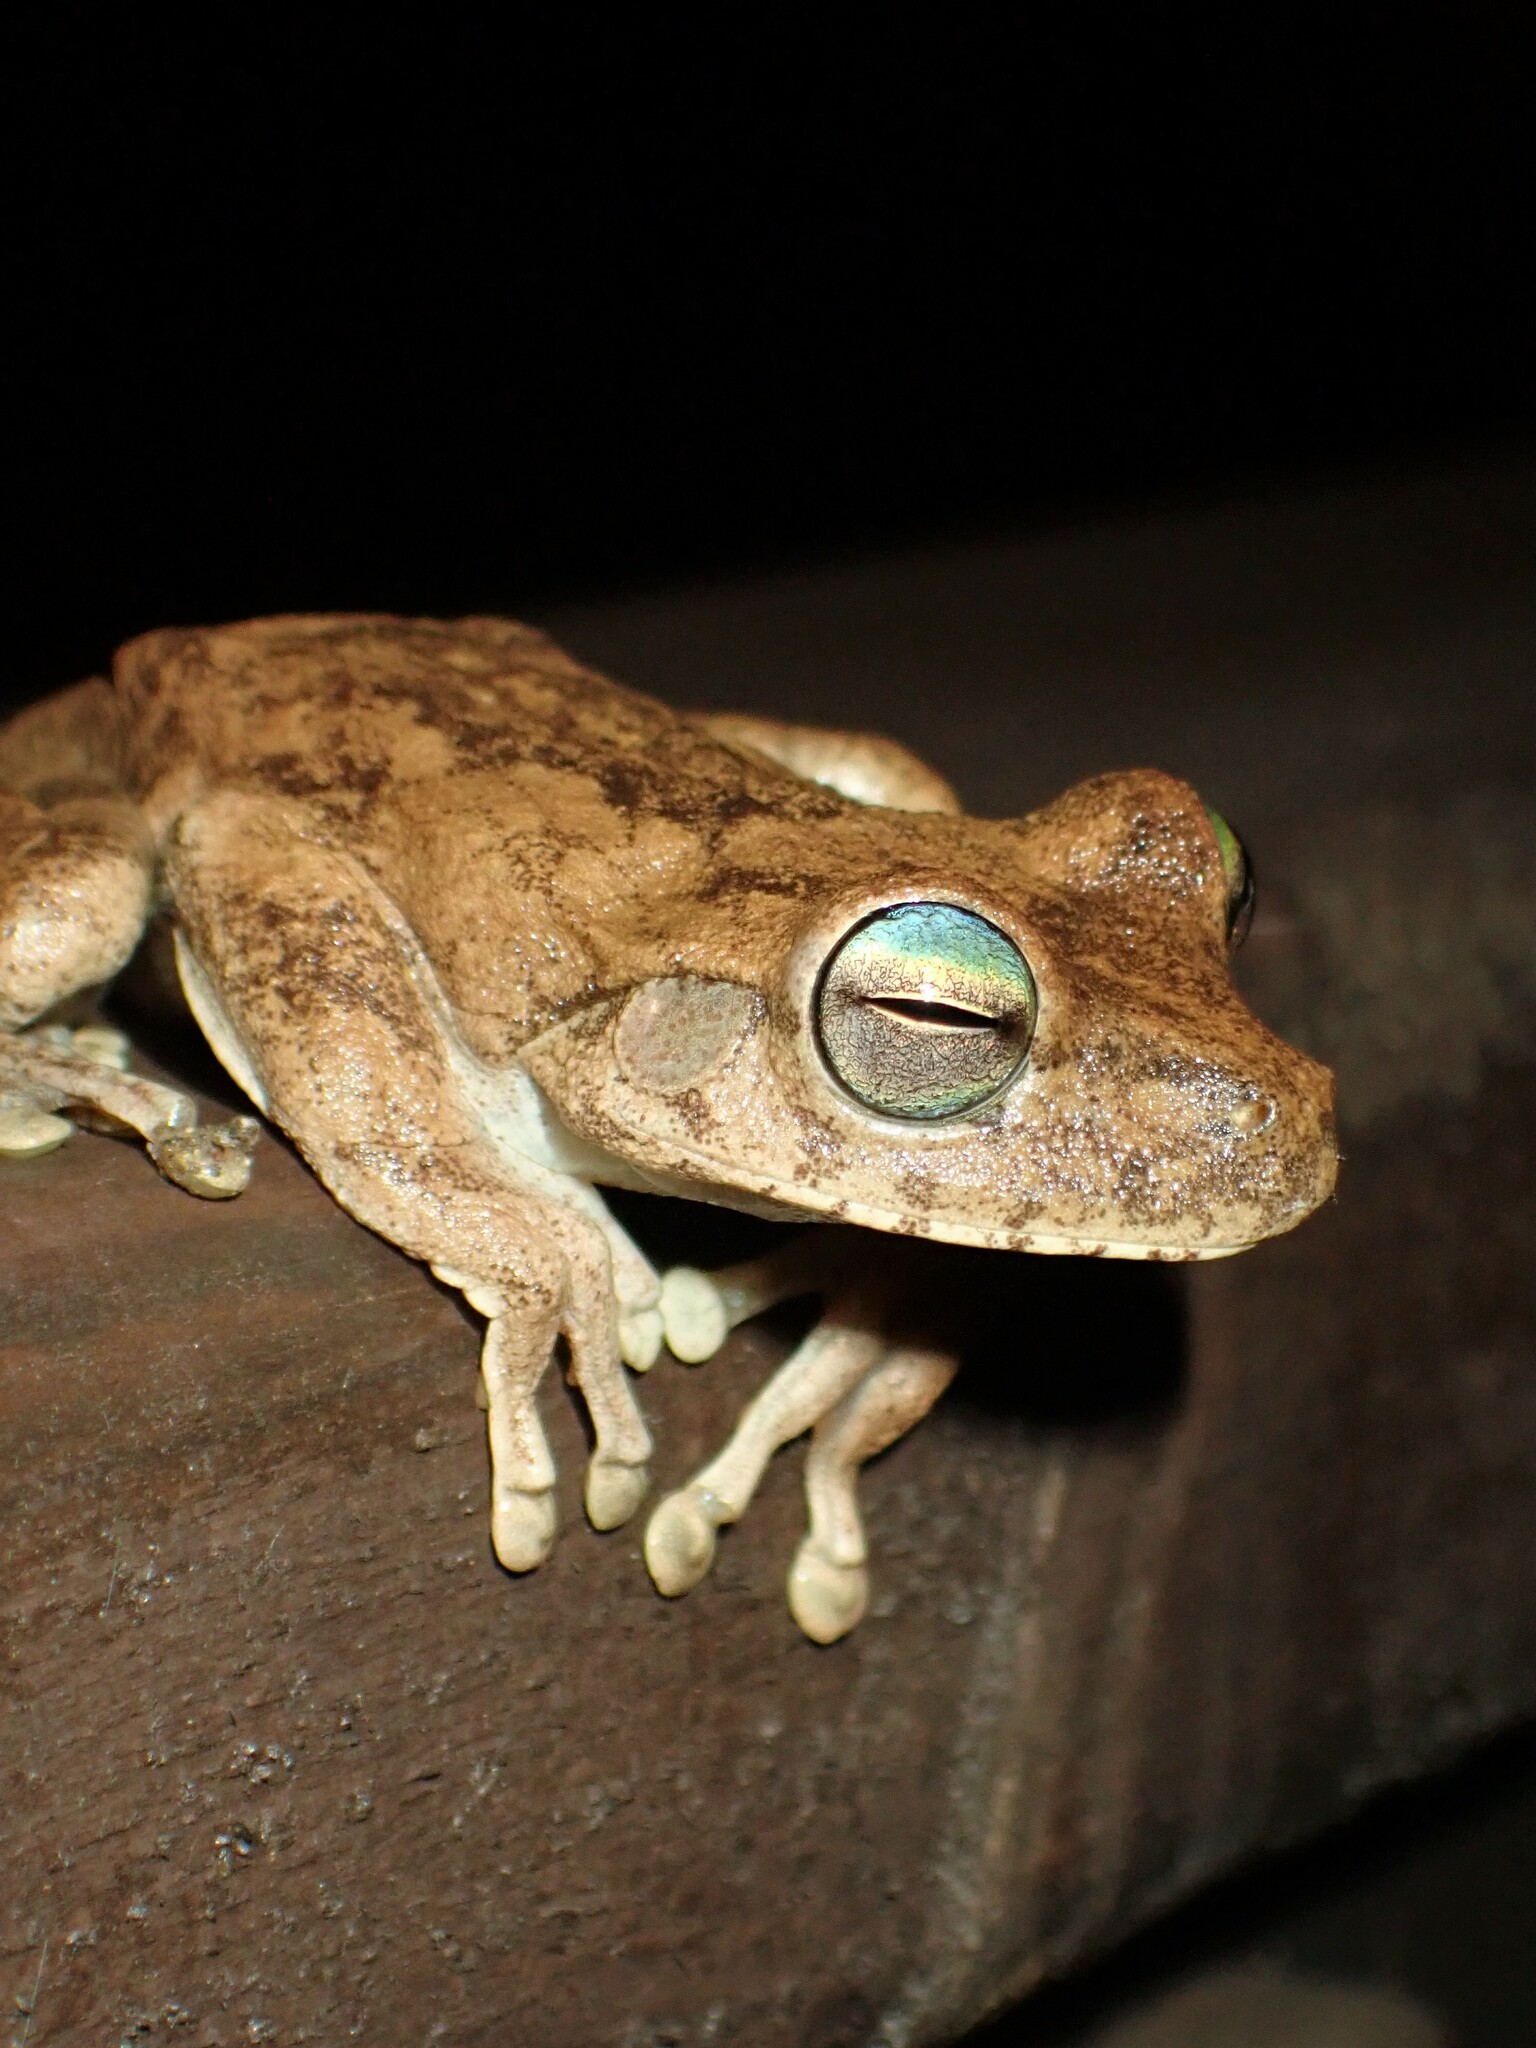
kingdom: Animalia
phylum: Chordata
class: Amphibia
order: Anura
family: Hylidae
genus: Boana
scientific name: Boana pugnax
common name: Chirique-flusse treefrog
